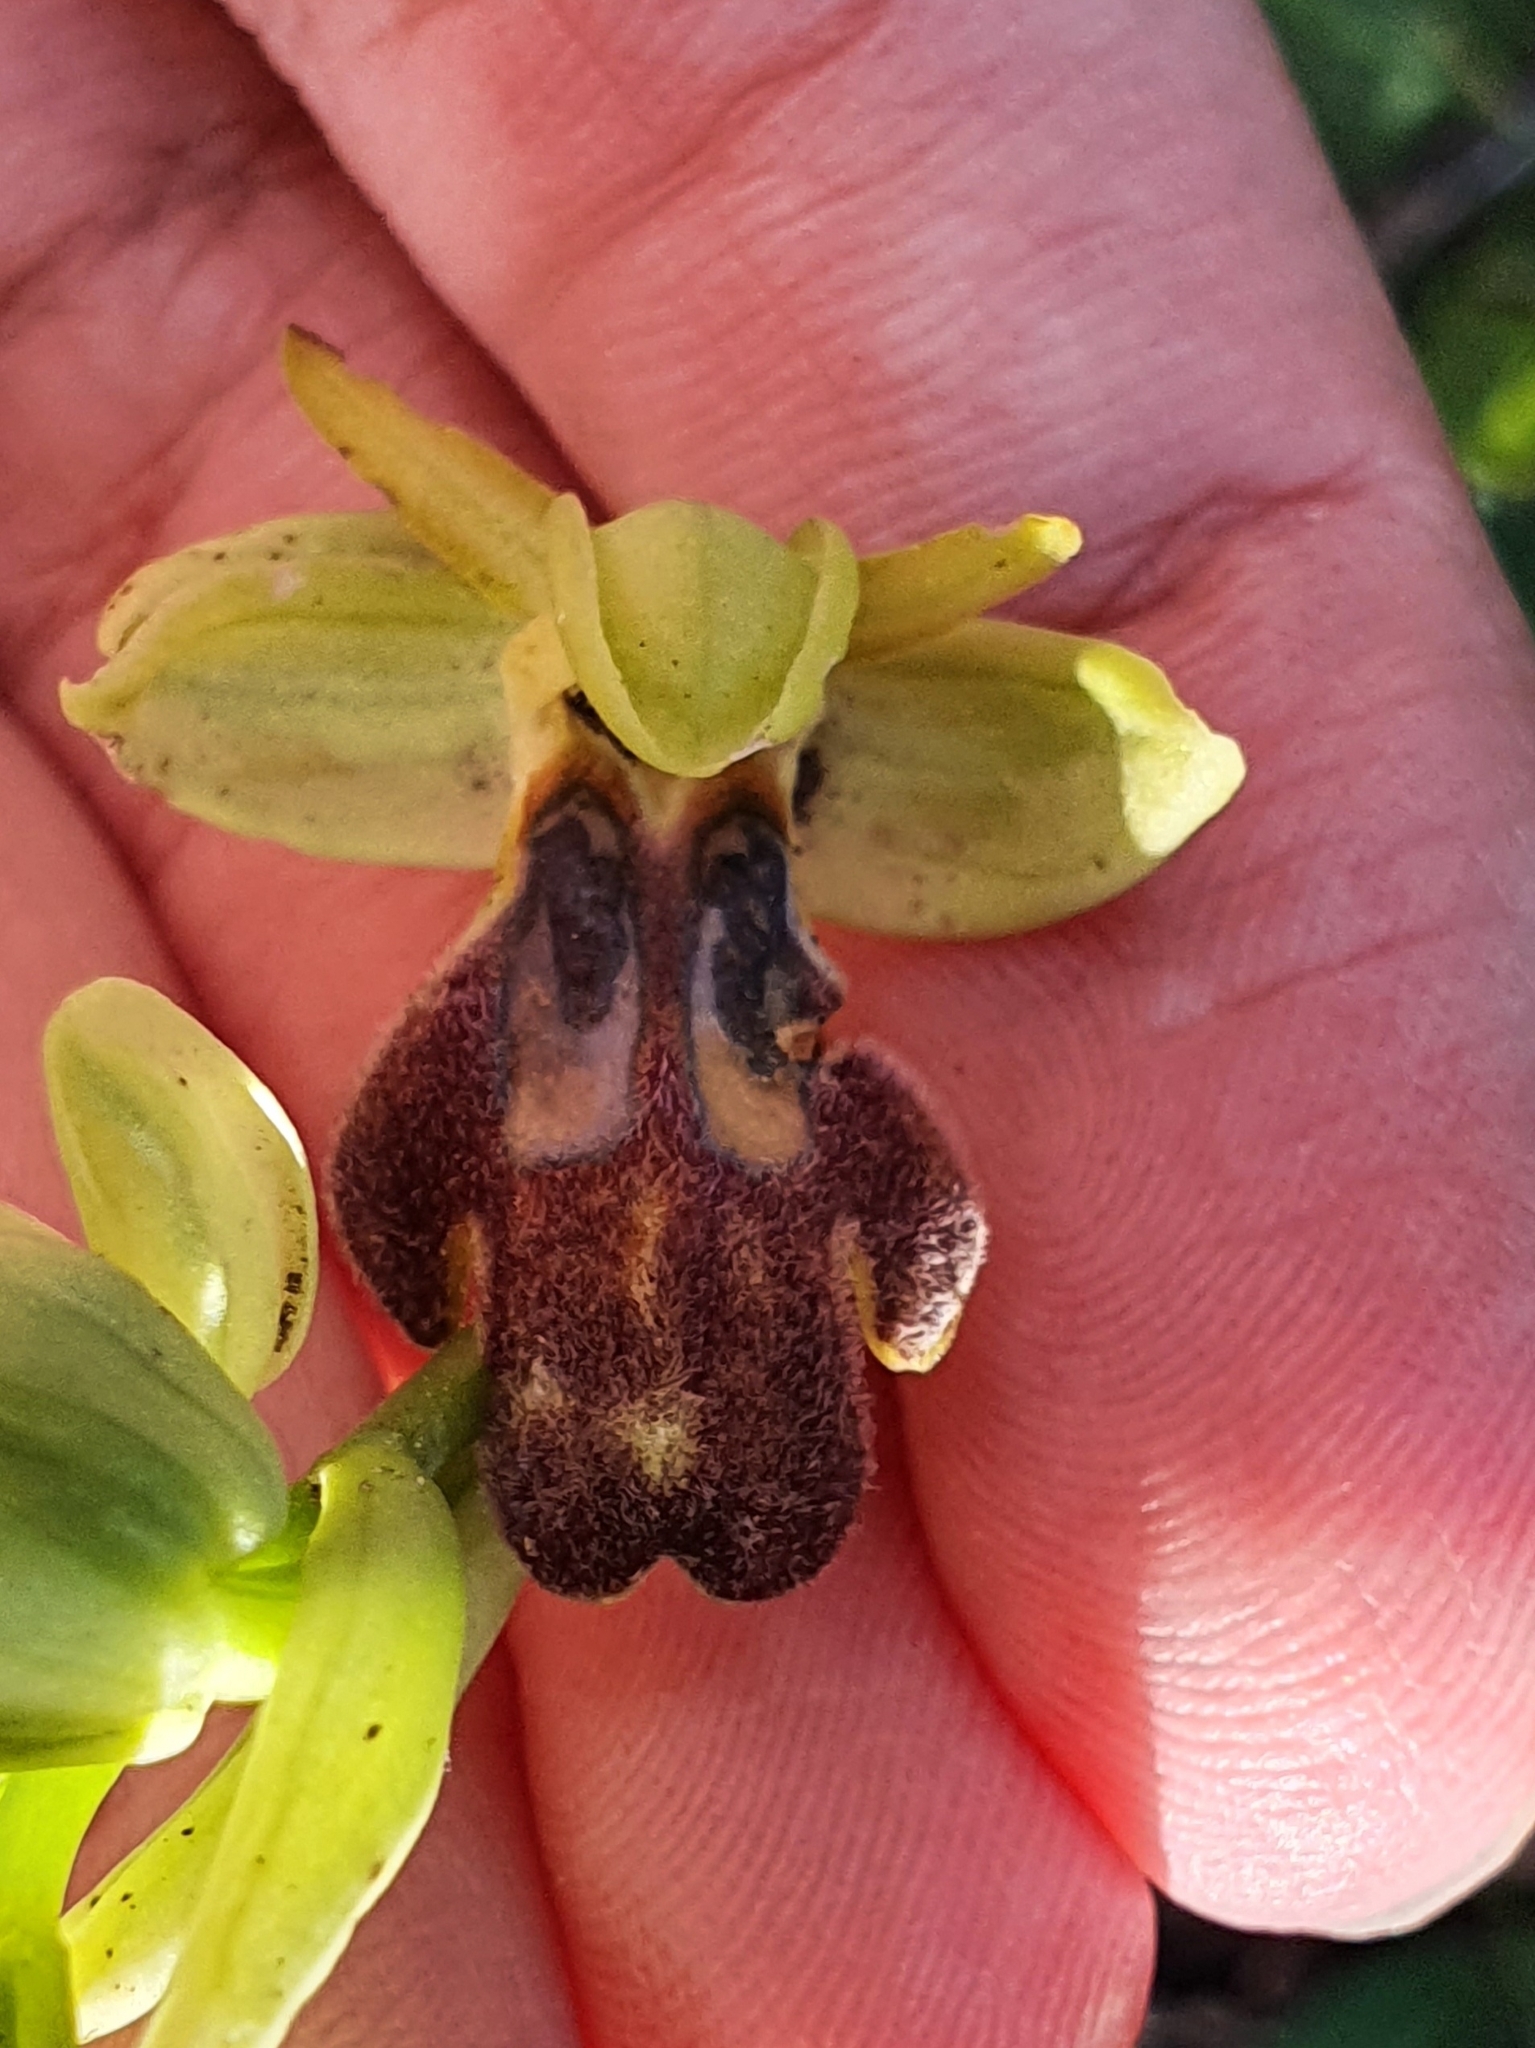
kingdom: Plantae
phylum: Tracheophyta
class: Liliopsida
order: Asparagales
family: Orchidaceae
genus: Ophrys
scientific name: Ophrys fusca
